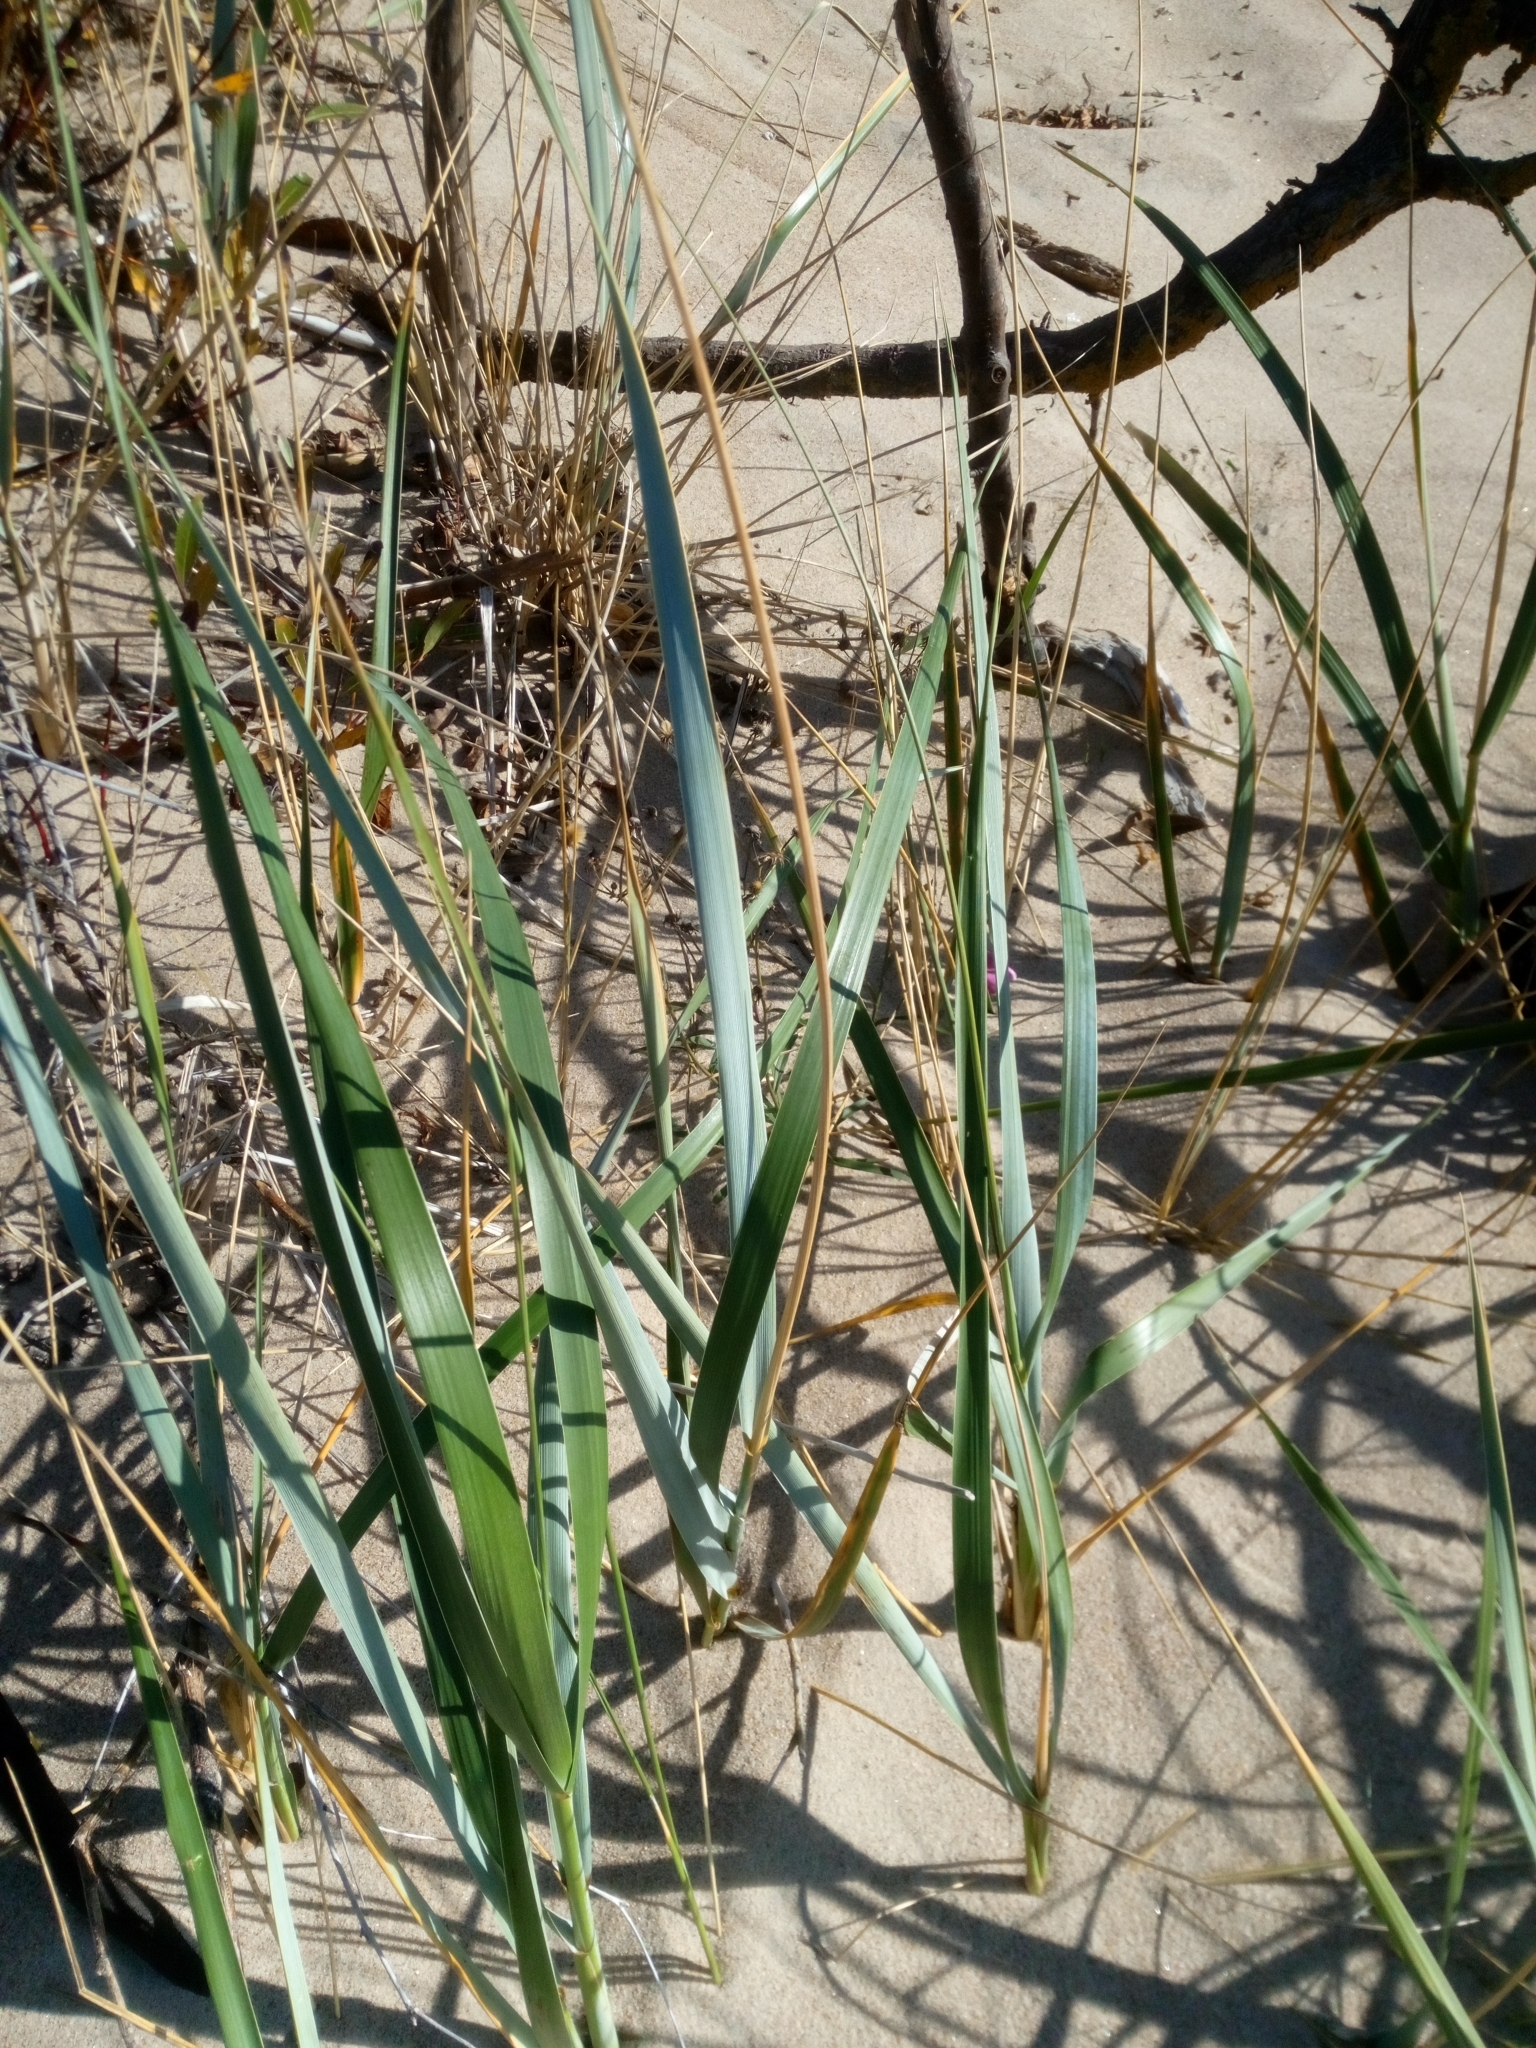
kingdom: Plantae
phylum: Tracheophyta
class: Liliopsida
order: Poales
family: Poaceae
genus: Leymus
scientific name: Leymus arenarius
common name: Lyme-grass
